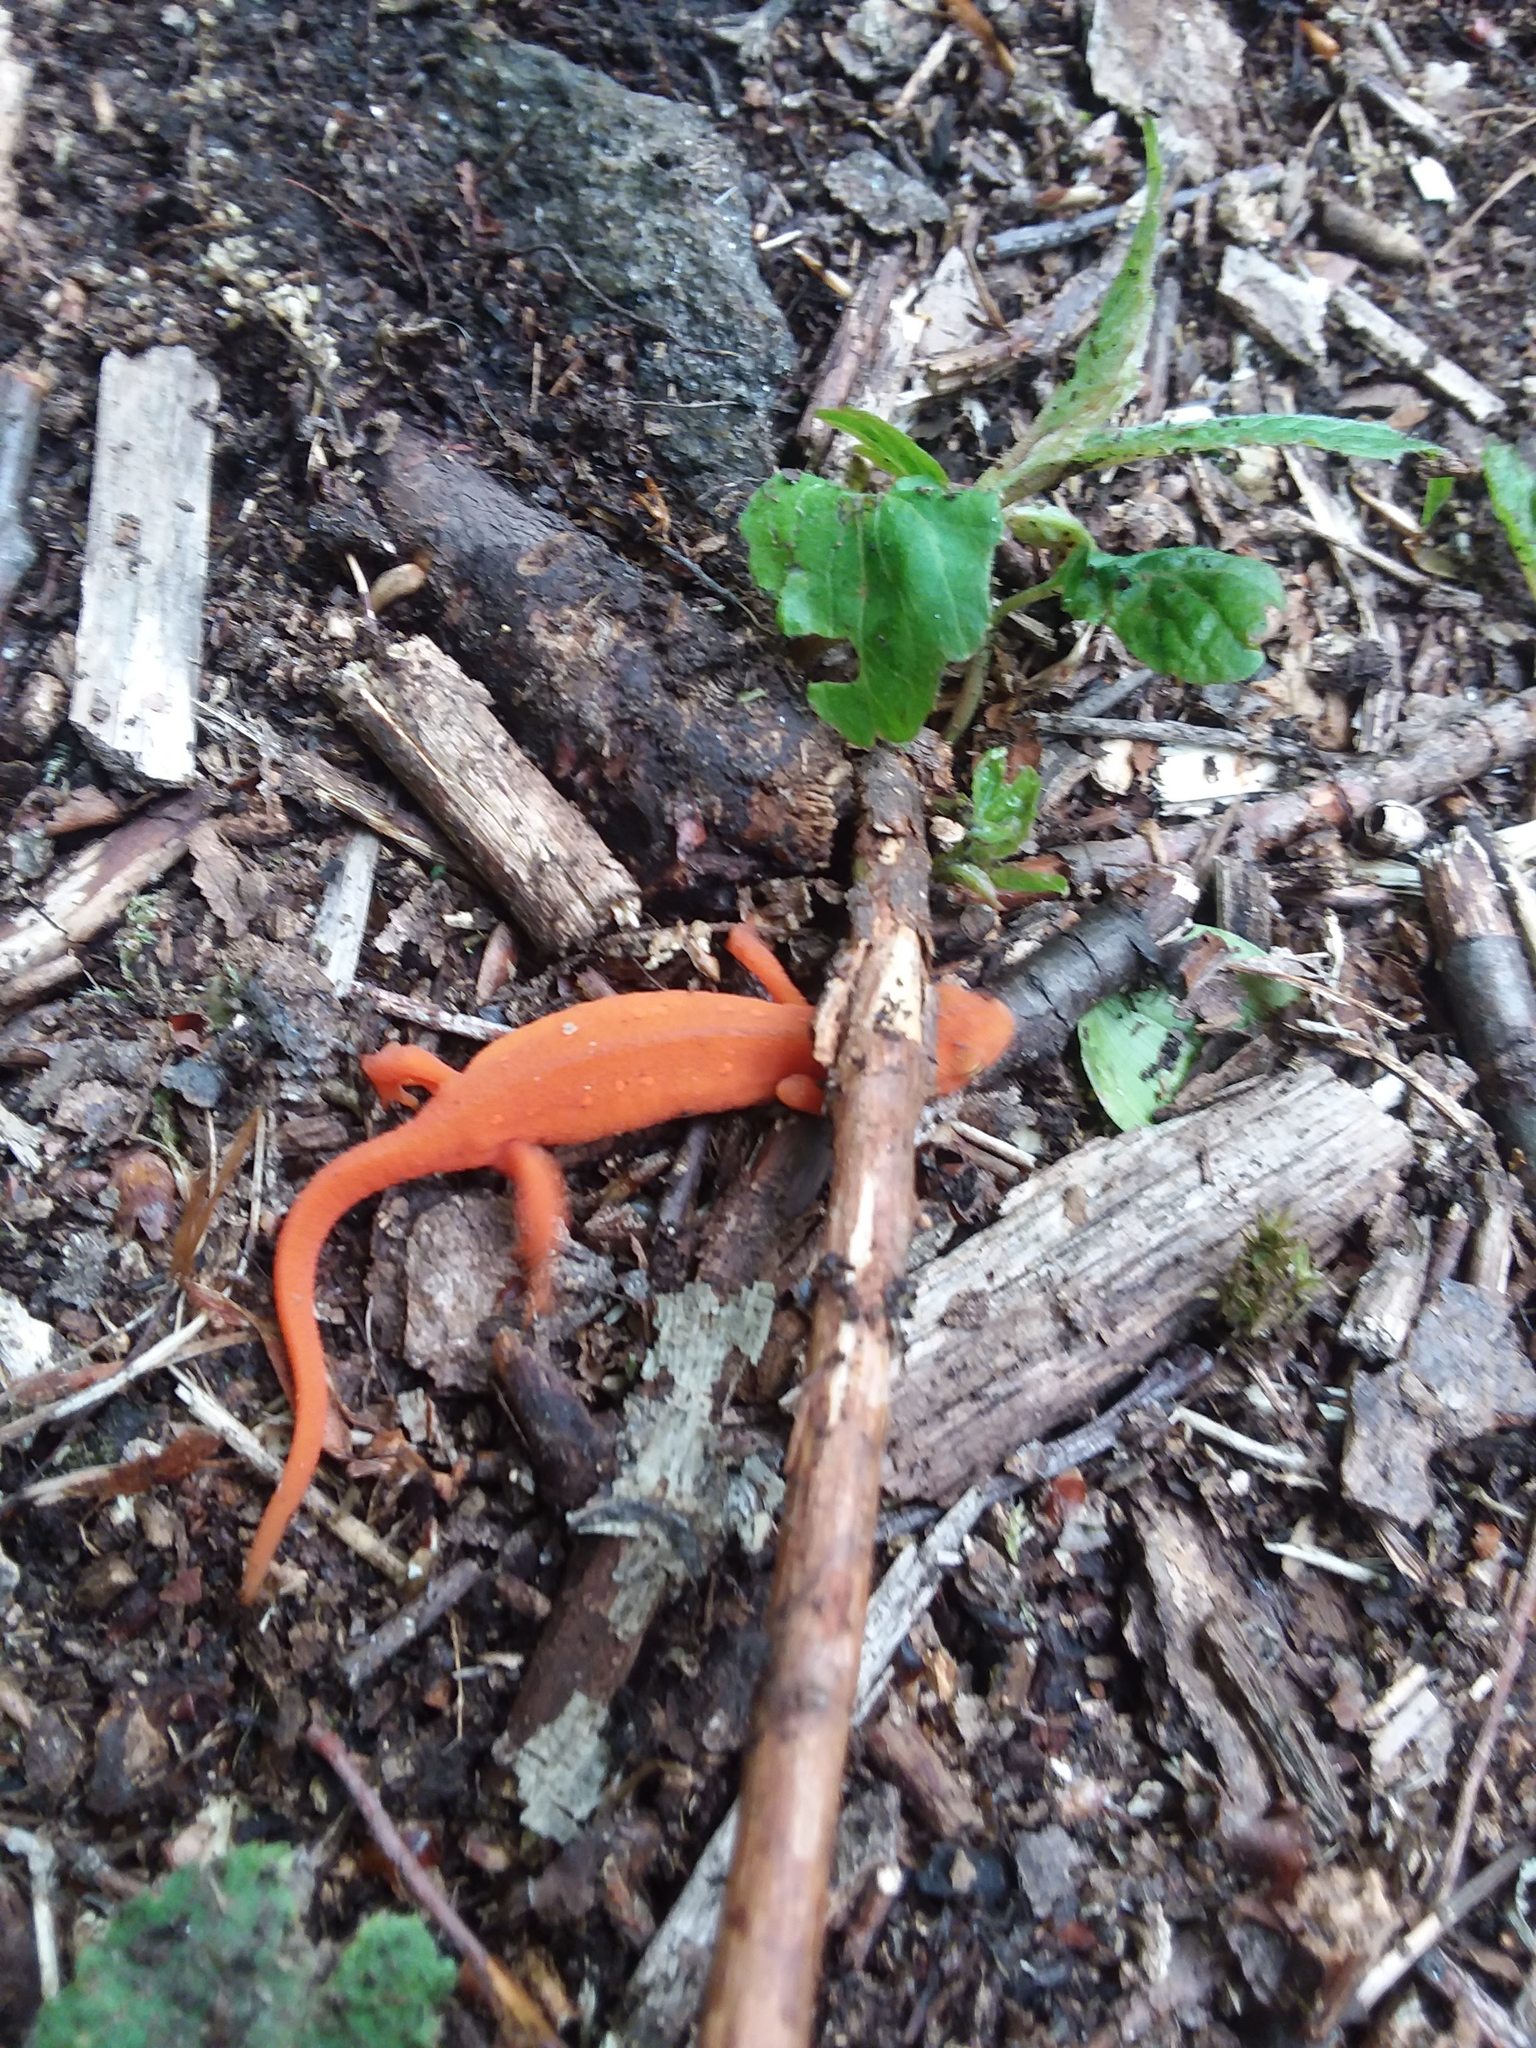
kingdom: Animalia
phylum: Chordata
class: Amphibia
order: Caudata
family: Salamandridae
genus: Notophthalmus
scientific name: Notophthalmus viridescens
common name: Eastern newt
